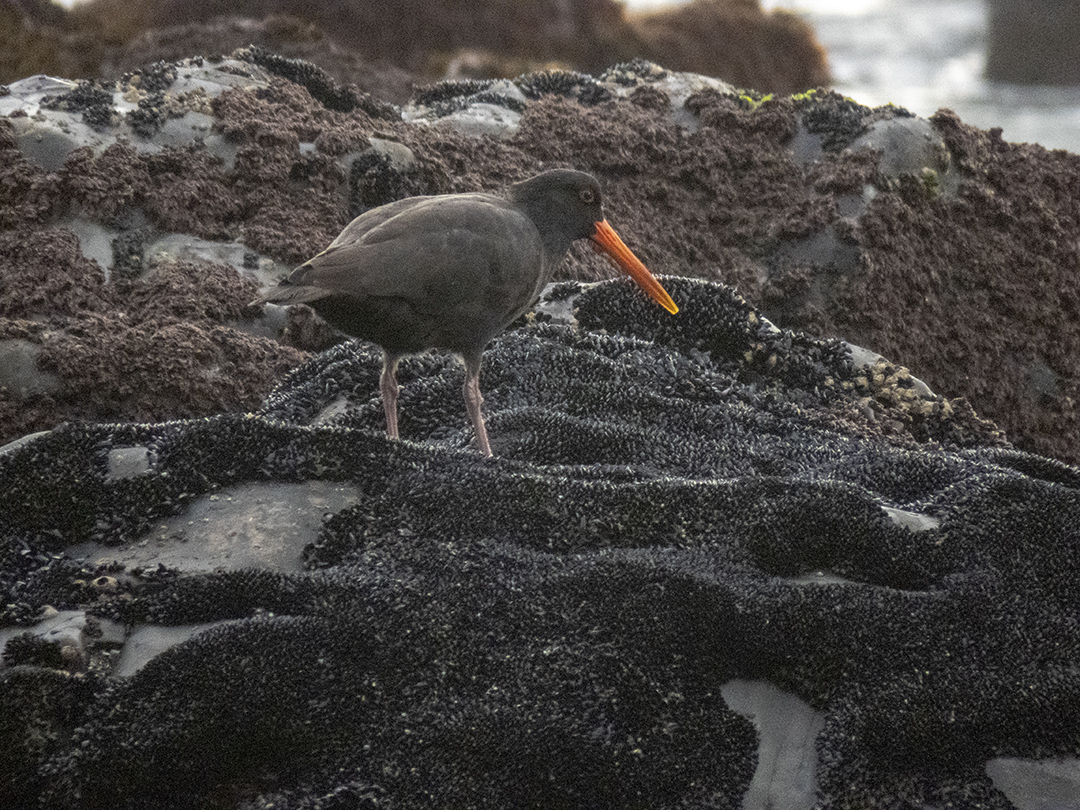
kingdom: Animalia
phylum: Chordata
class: Aves
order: Charadriiformes
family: Haematopodidae
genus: Haematopus
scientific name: Haematopus unicolor
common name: Variable oystercatcher
